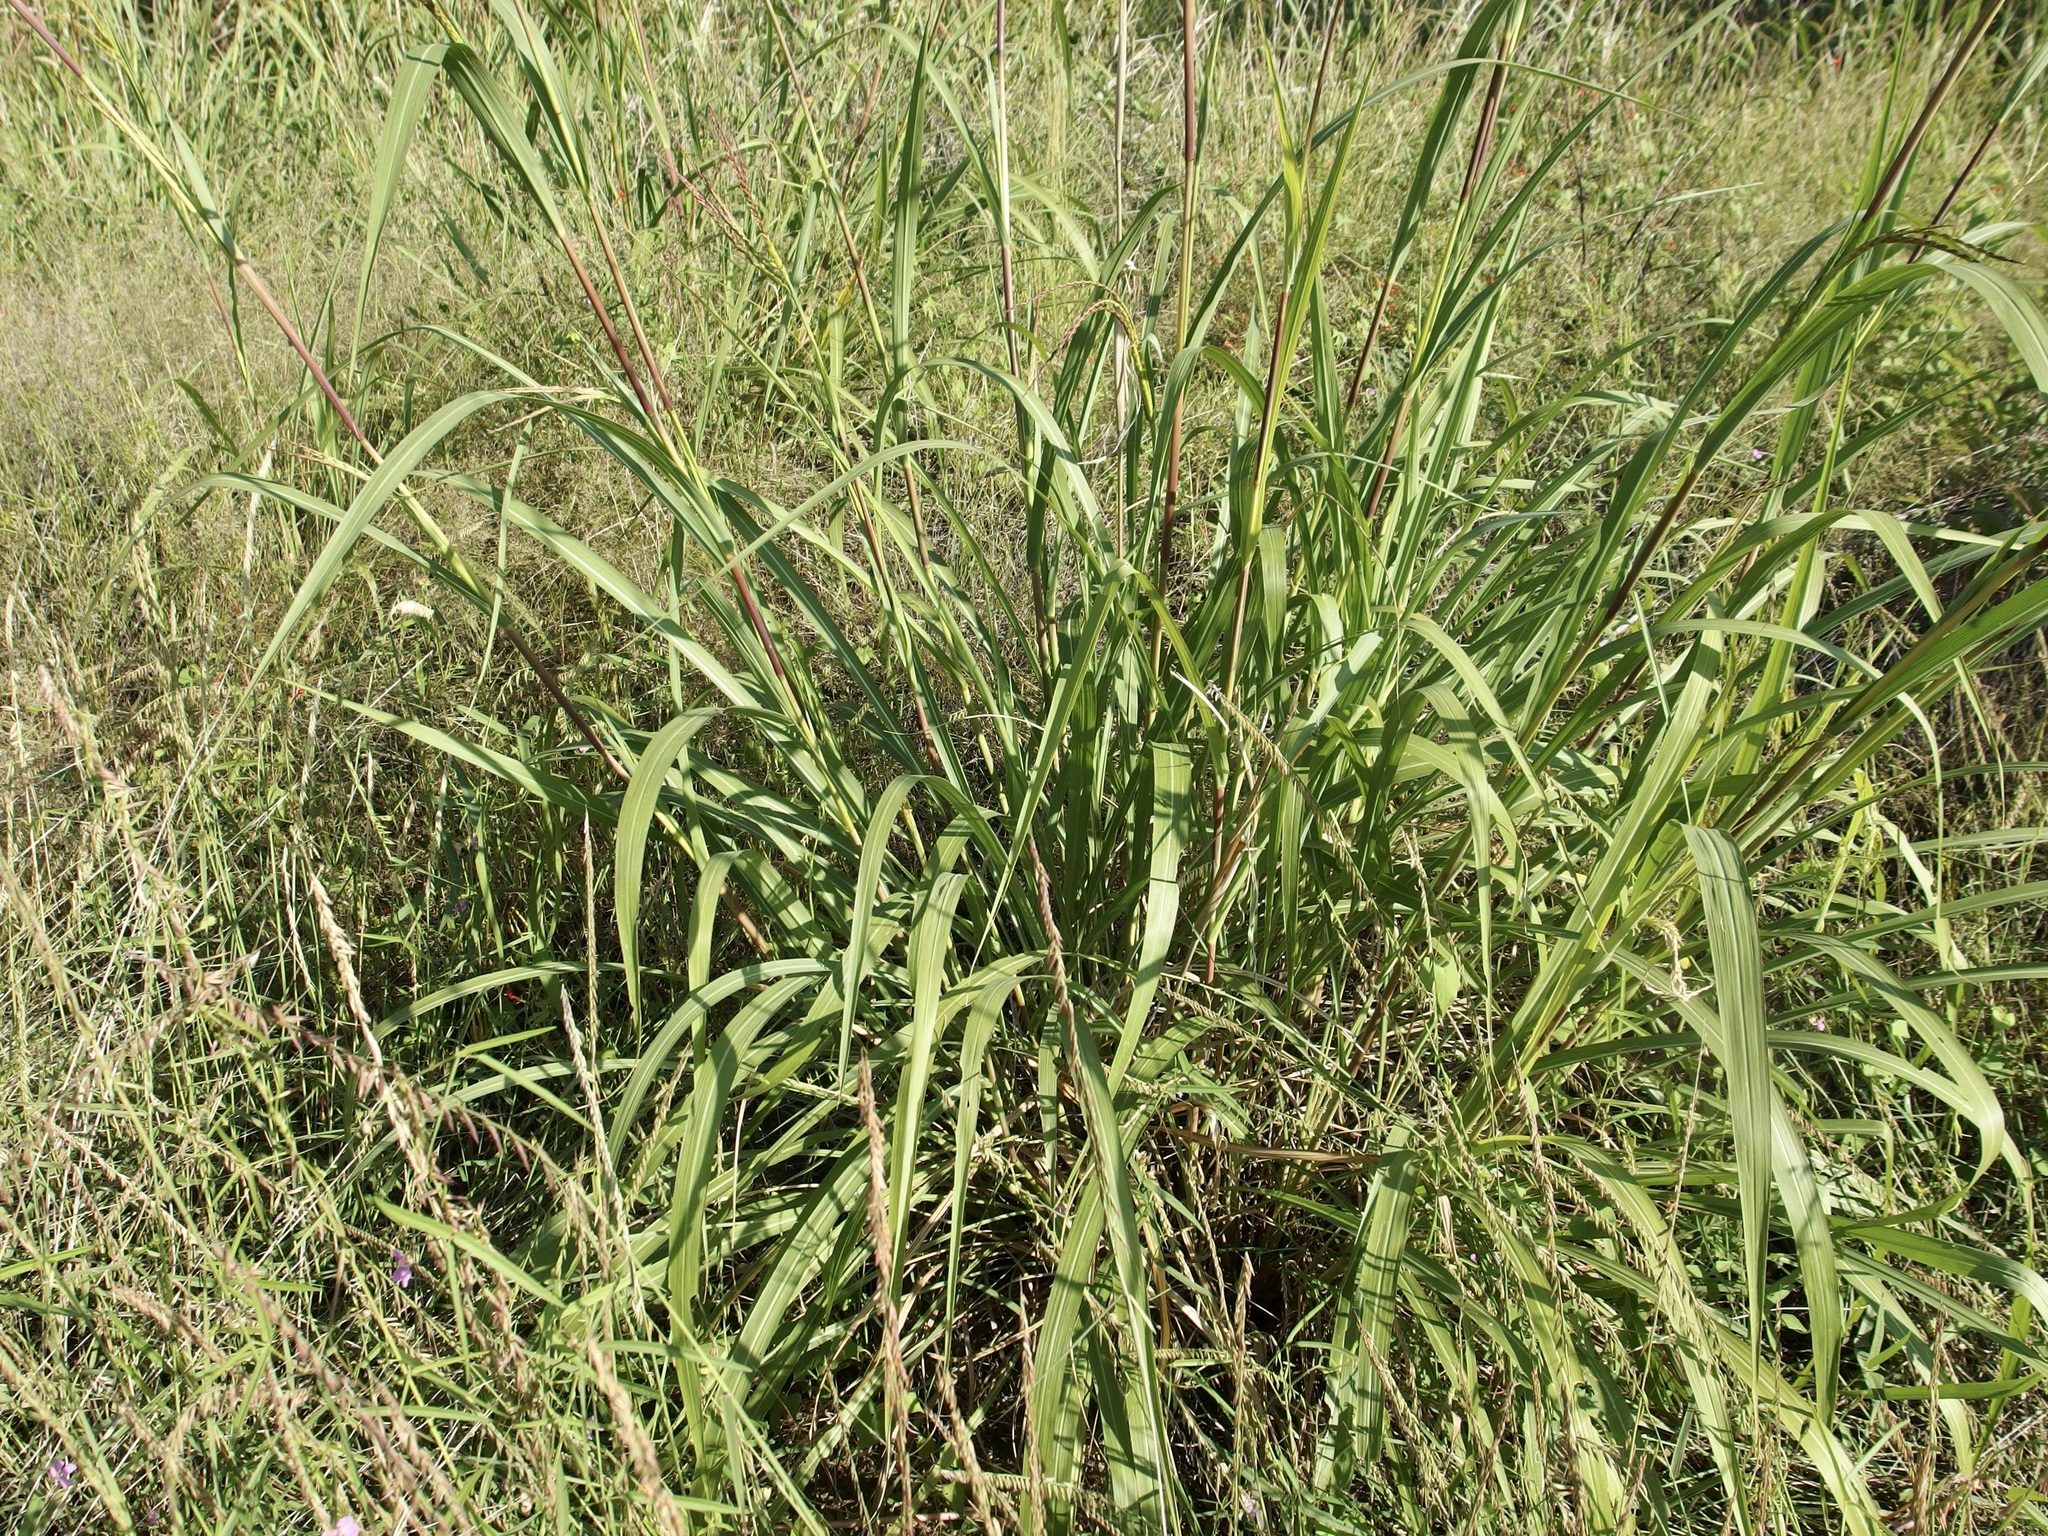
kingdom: Plantae
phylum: Tracheophyta
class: Liliopsida
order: Poales
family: Poaceae
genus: Tripsacum
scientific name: Tripsacum lanceolatum
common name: Mexican gama grass
